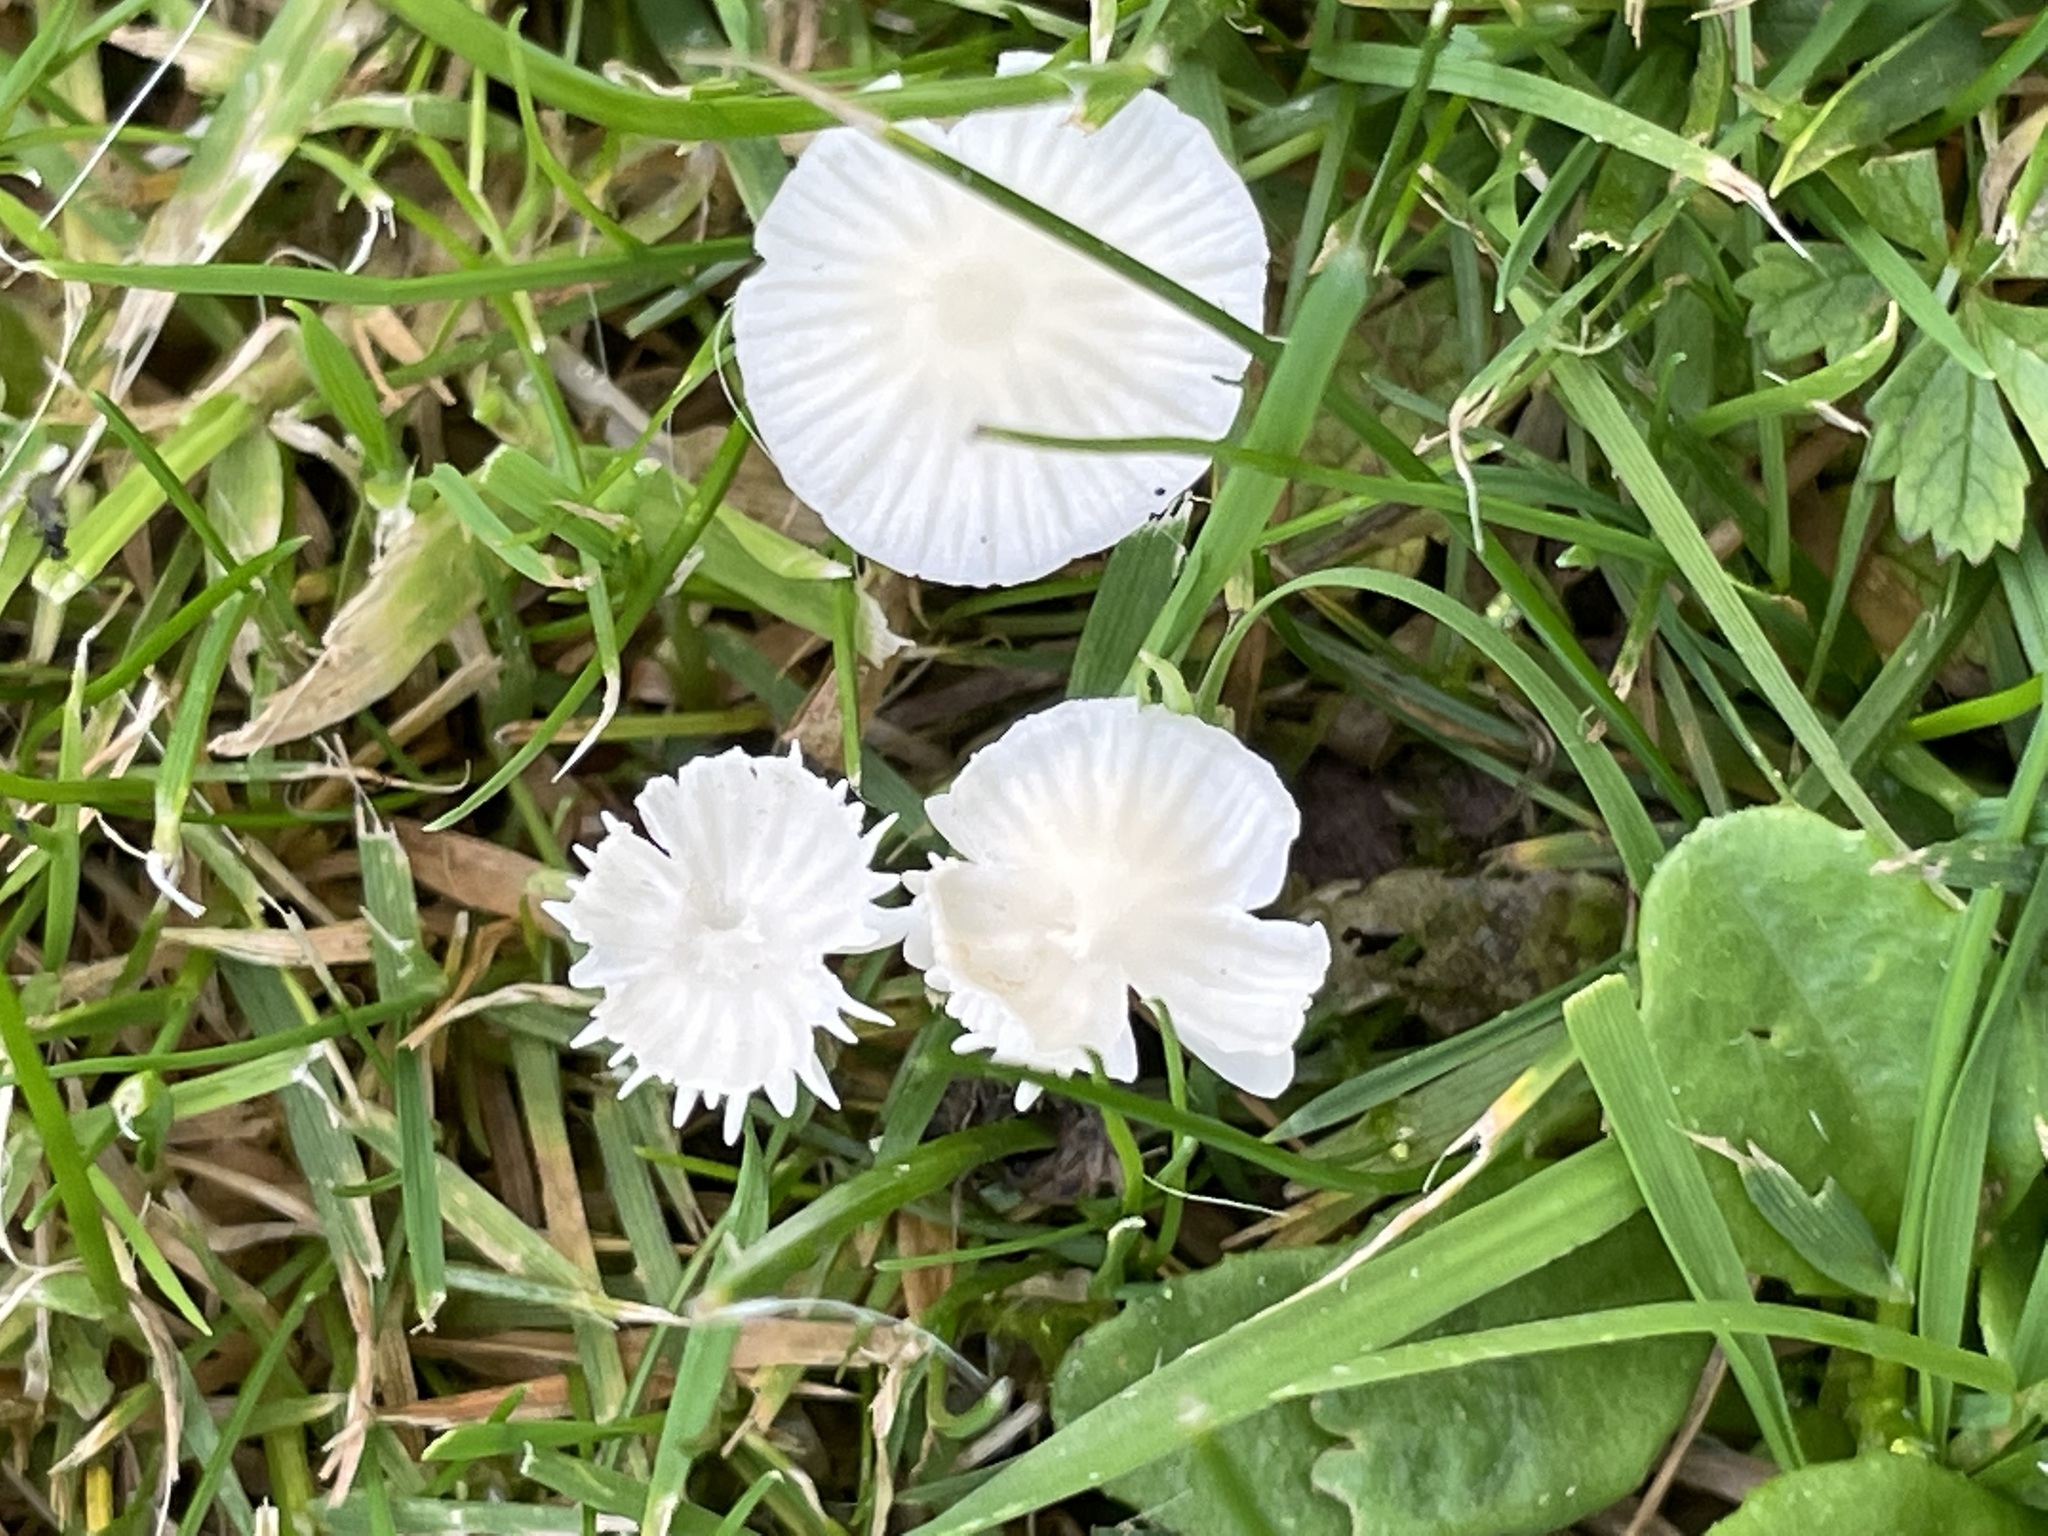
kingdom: Fungi
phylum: Basidiomycota
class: Agaricomycetes
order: Agaricales
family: Mycenaceae
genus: Atheniella
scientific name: Atheniella flavoalba
